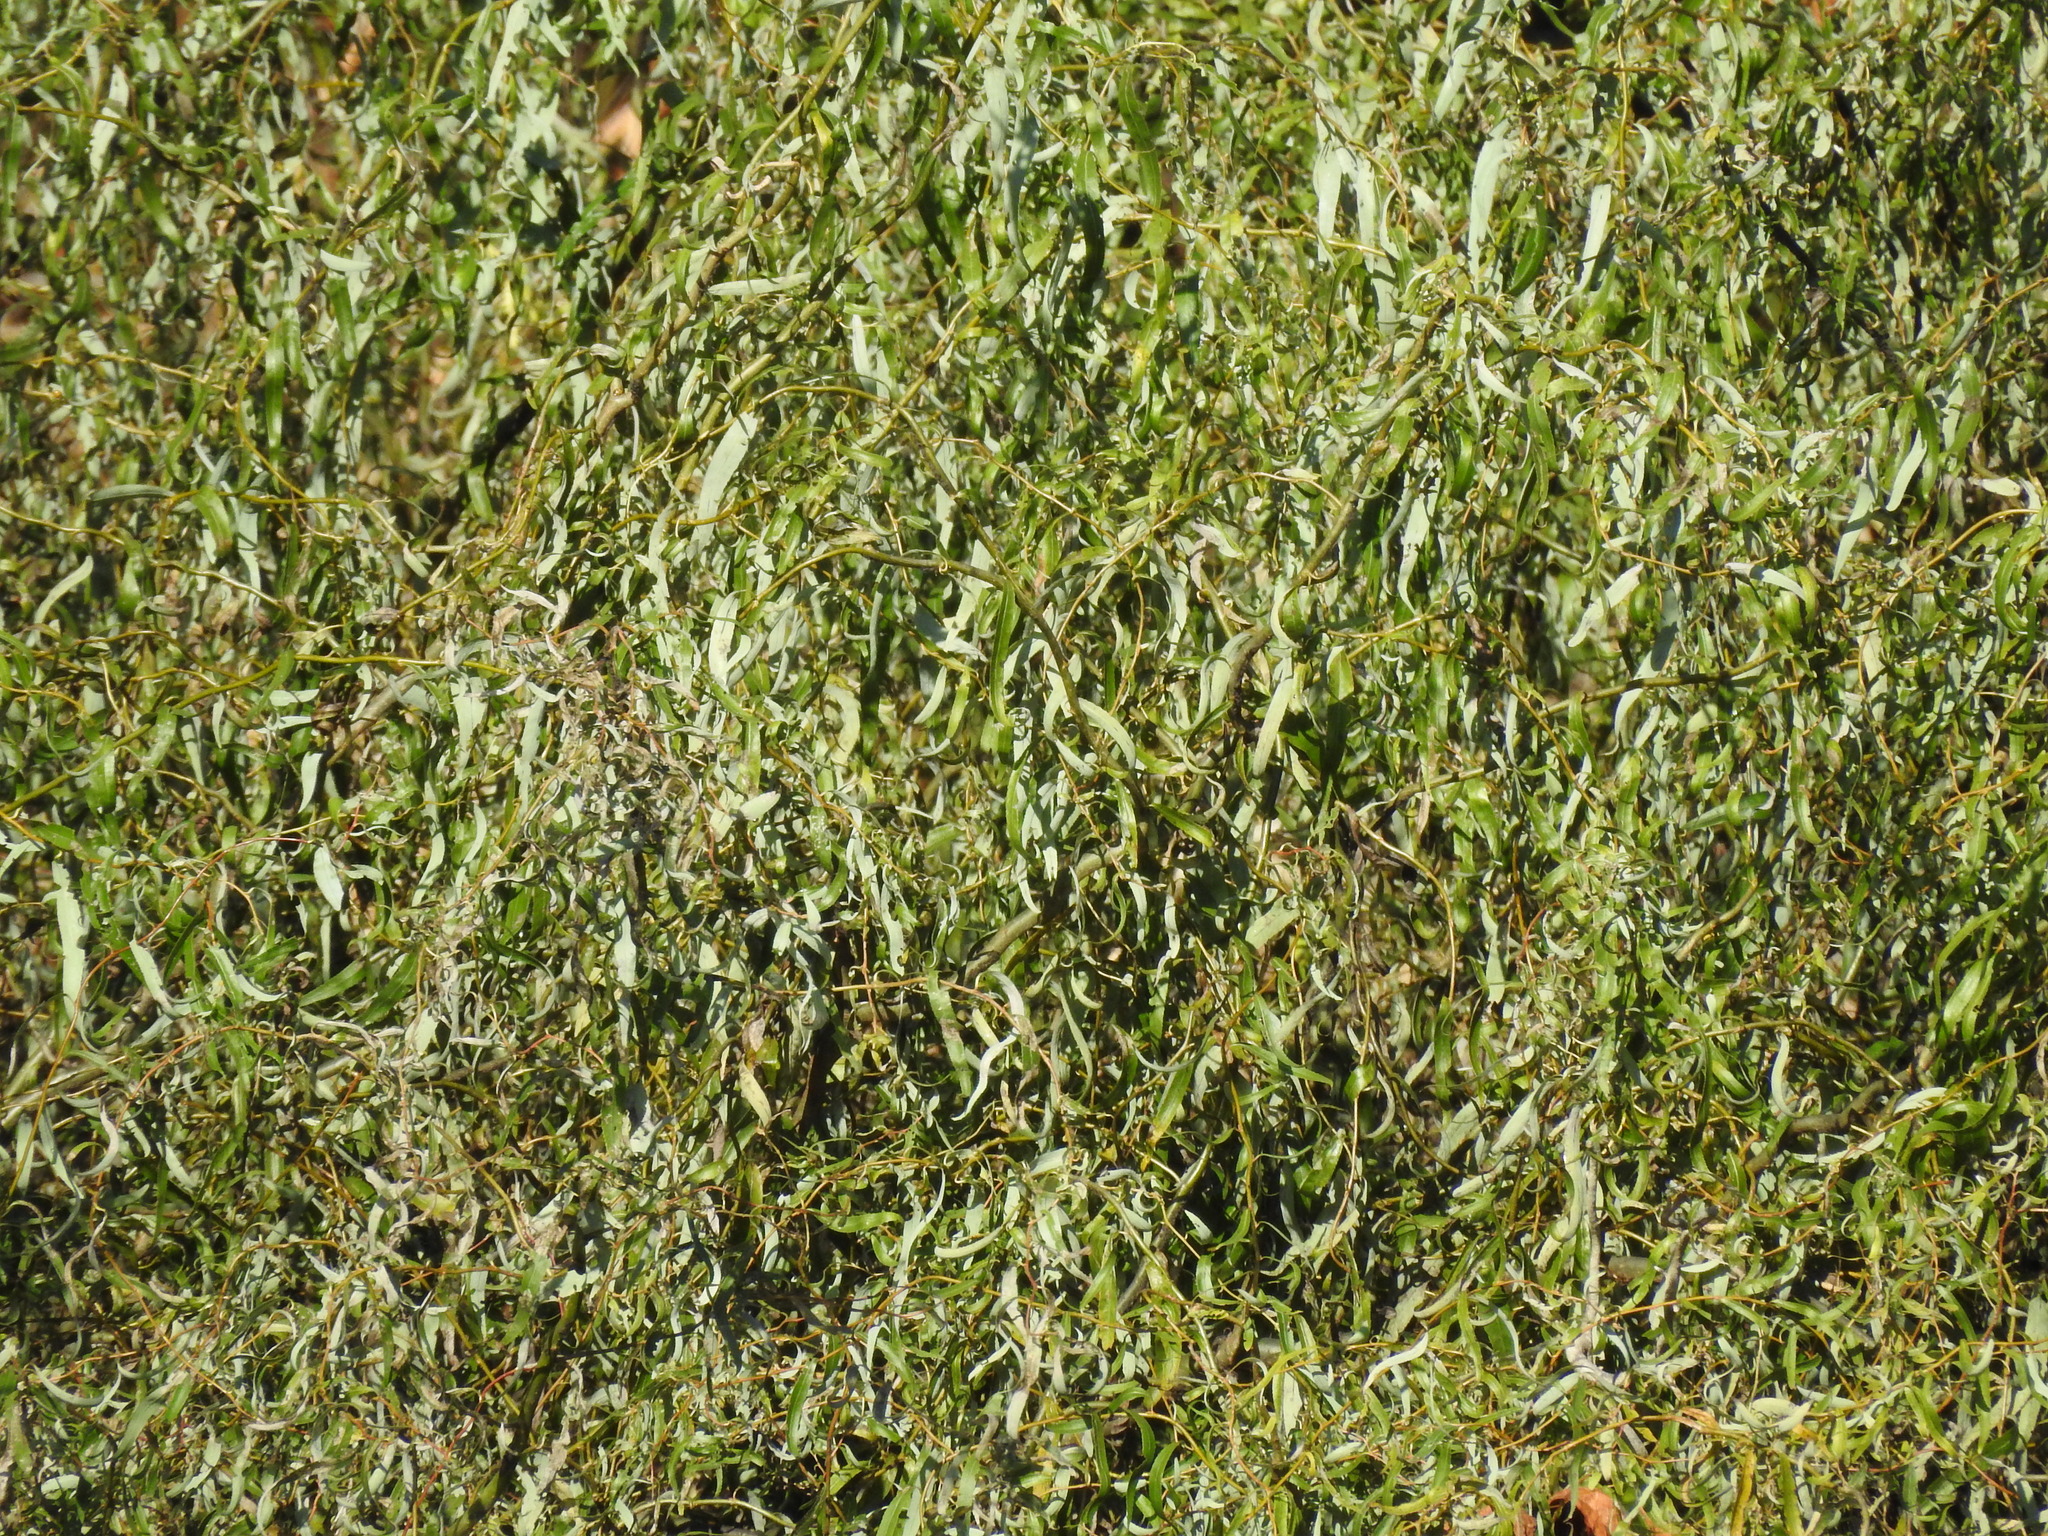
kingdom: Plantae
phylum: Tracheophyta
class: Magnoliopsida
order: Malpighiales
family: Salicaceae
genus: Salix
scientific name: Salix
